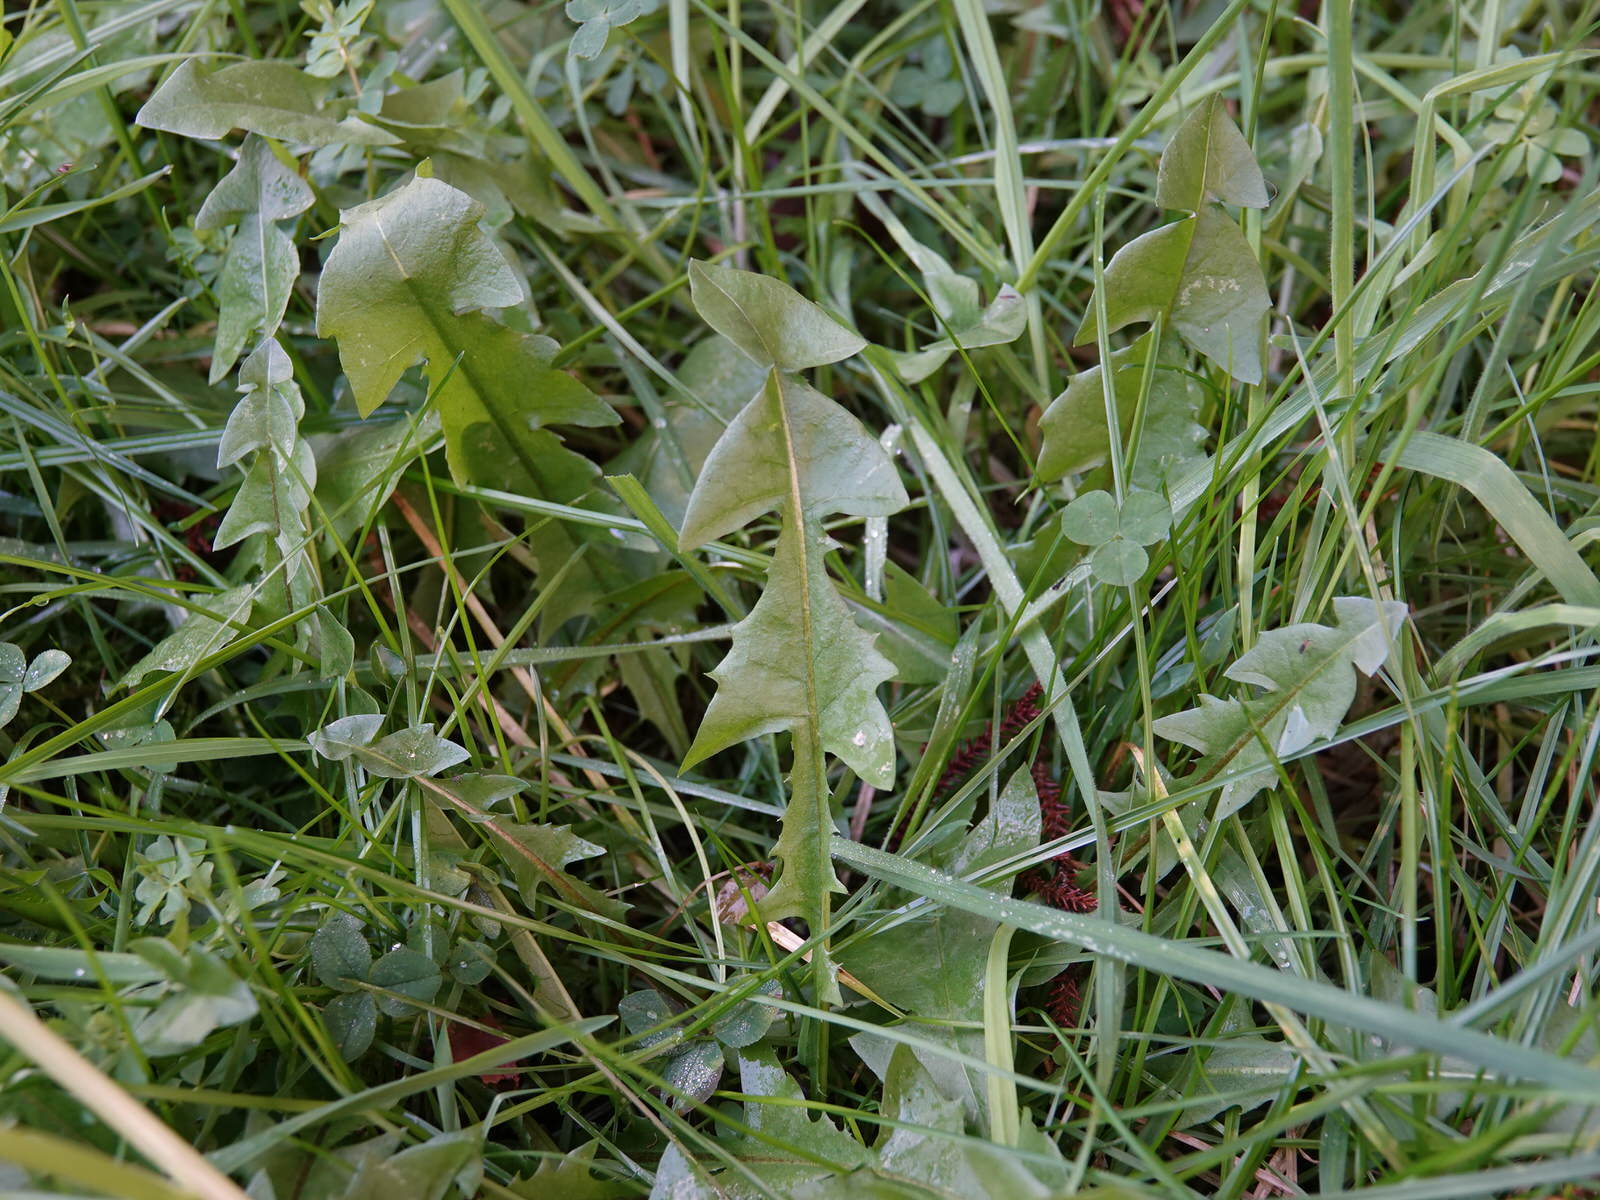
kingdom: Plantae
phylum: Tracheophyta
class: Magnoliopsida
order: Asterales
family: Asteraceae
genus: Taraxacum
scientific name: Taraxacum officinale
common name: Common dandelion
